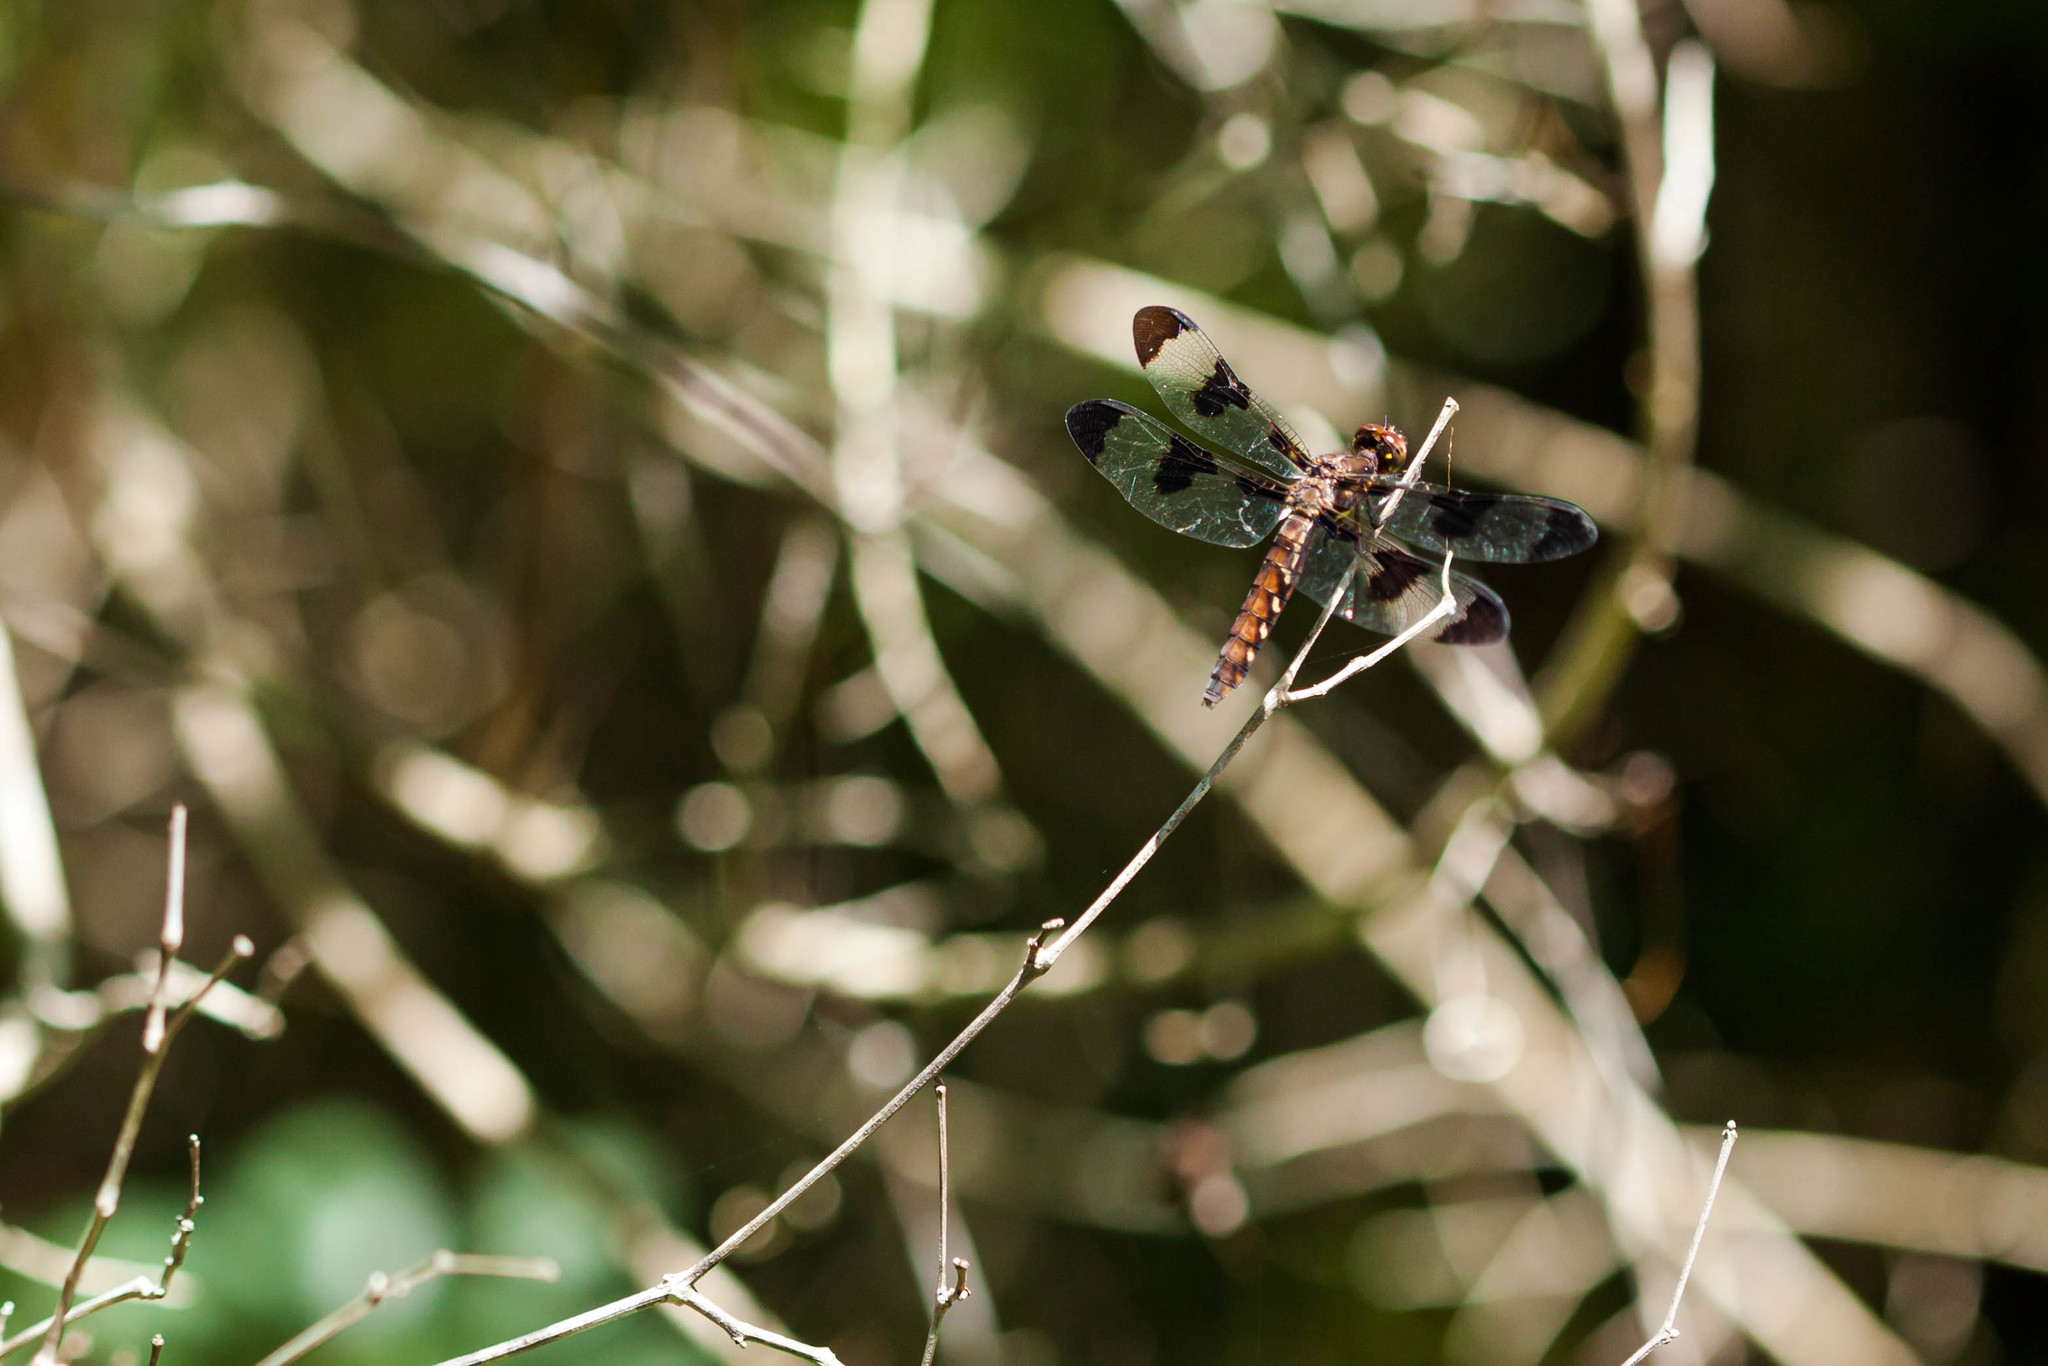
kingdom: Animalia
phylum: Arthropoda
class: Insecta
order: Odonata
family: Libellulidae
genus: Plathemis
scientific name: Plathemis lydia
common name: Common whitetail
